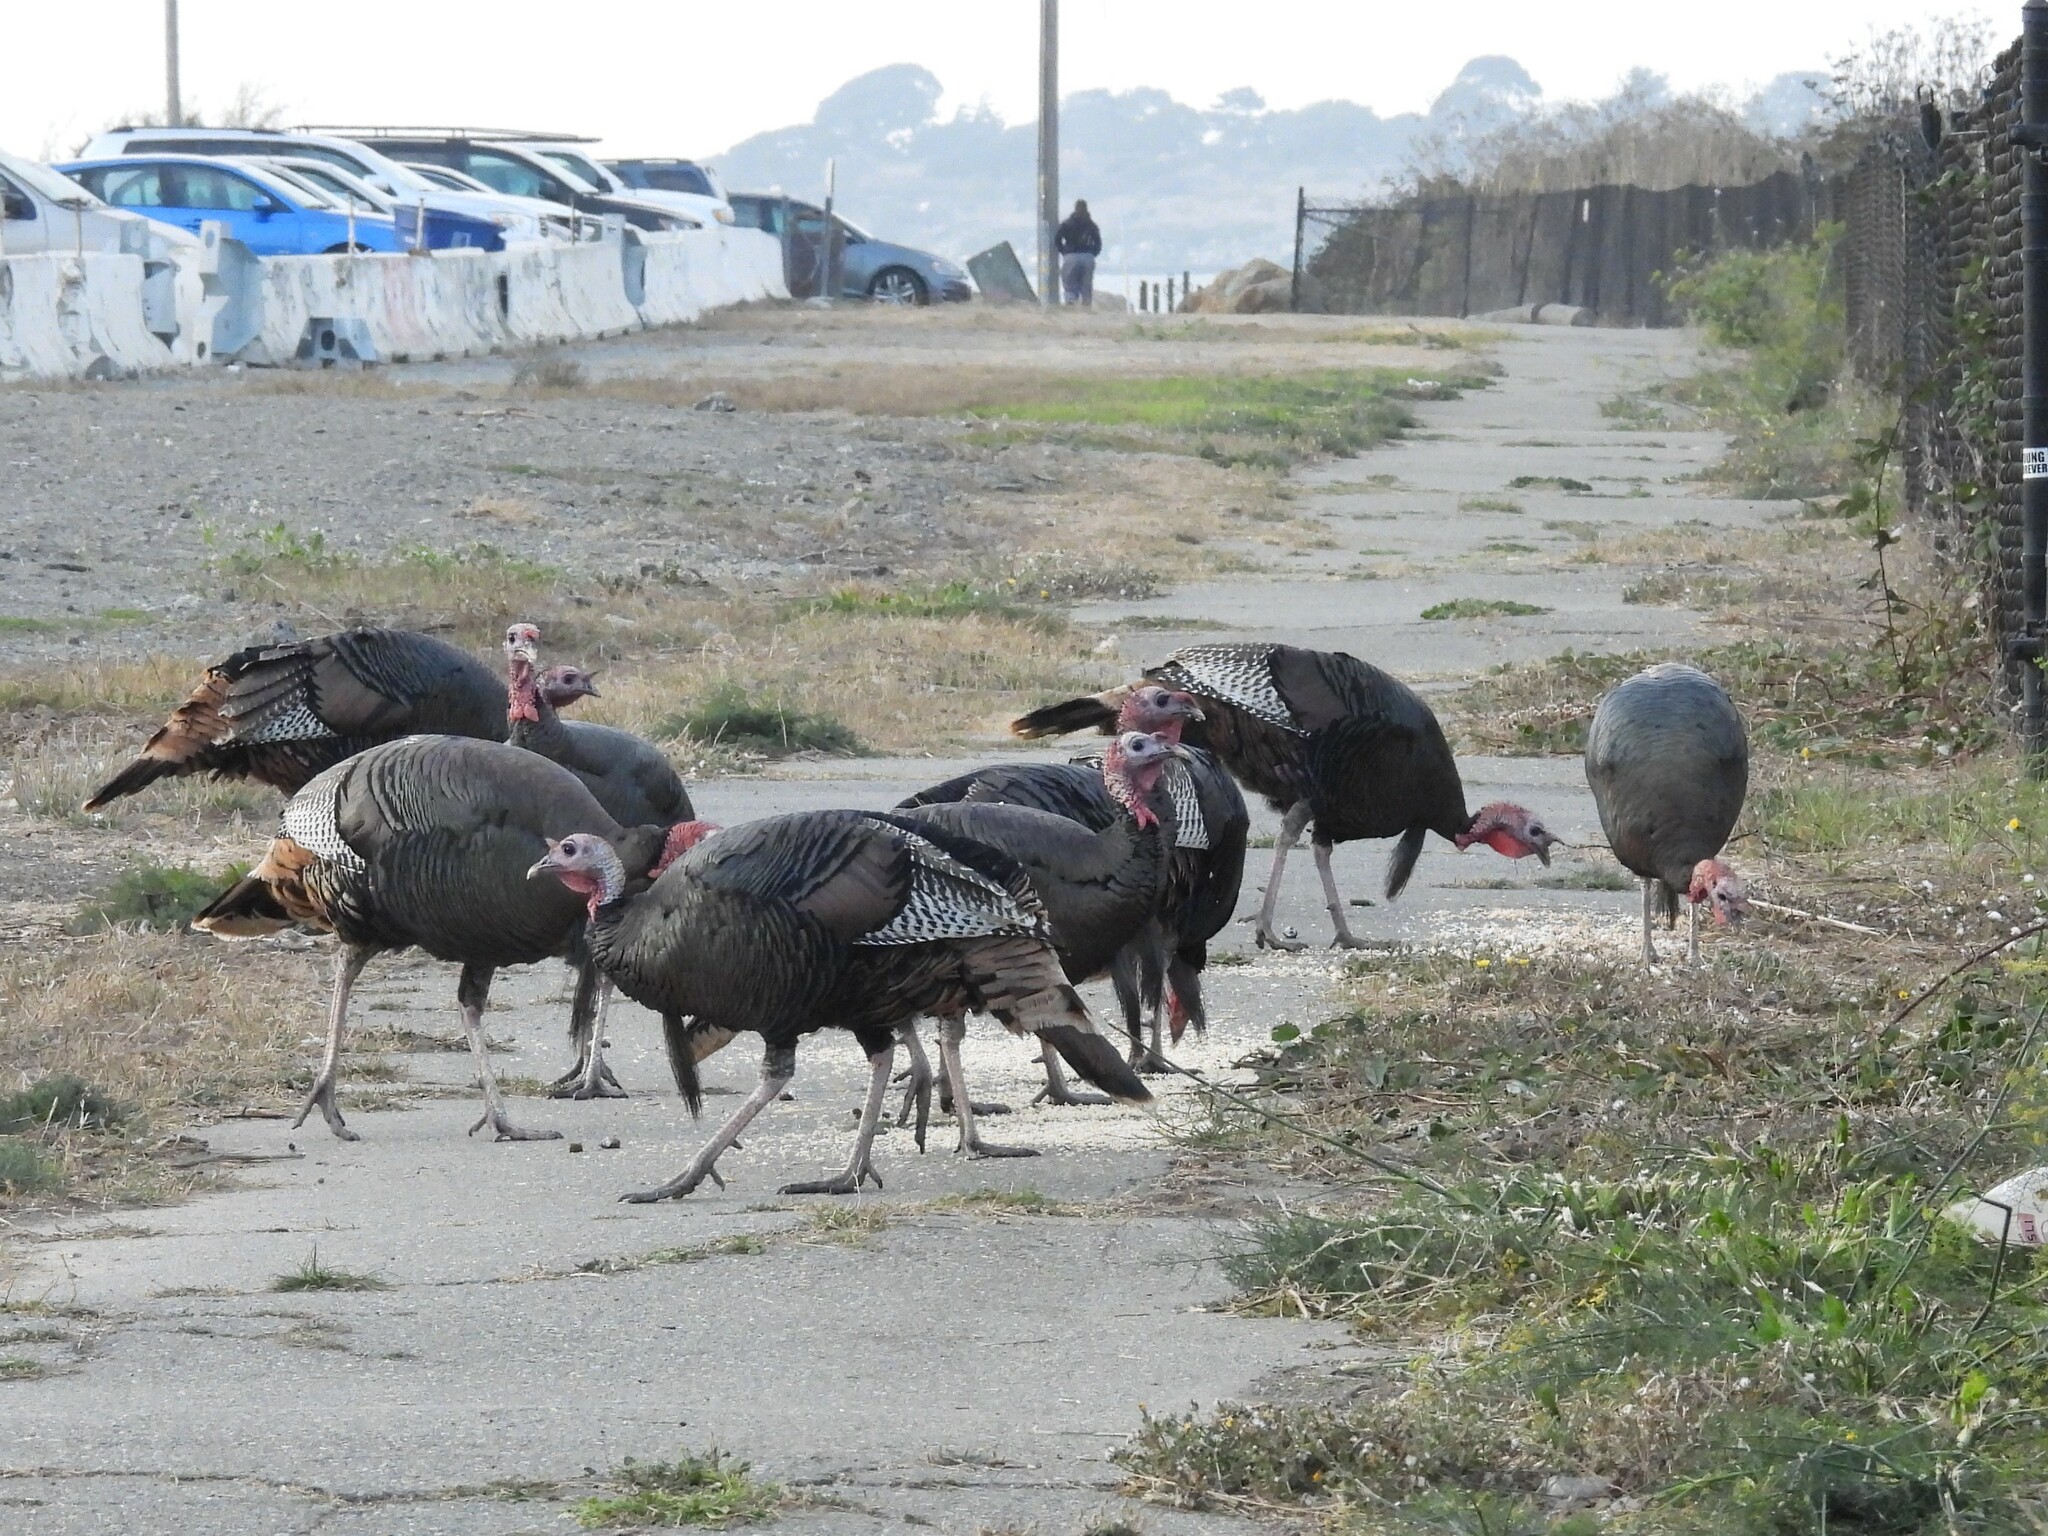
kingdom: Animalia
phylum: Chordata
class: Aves
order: Galliformes
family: Phasianidae
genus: Meleagris
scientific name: Meleagris gallopavo
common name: Wild turkey
